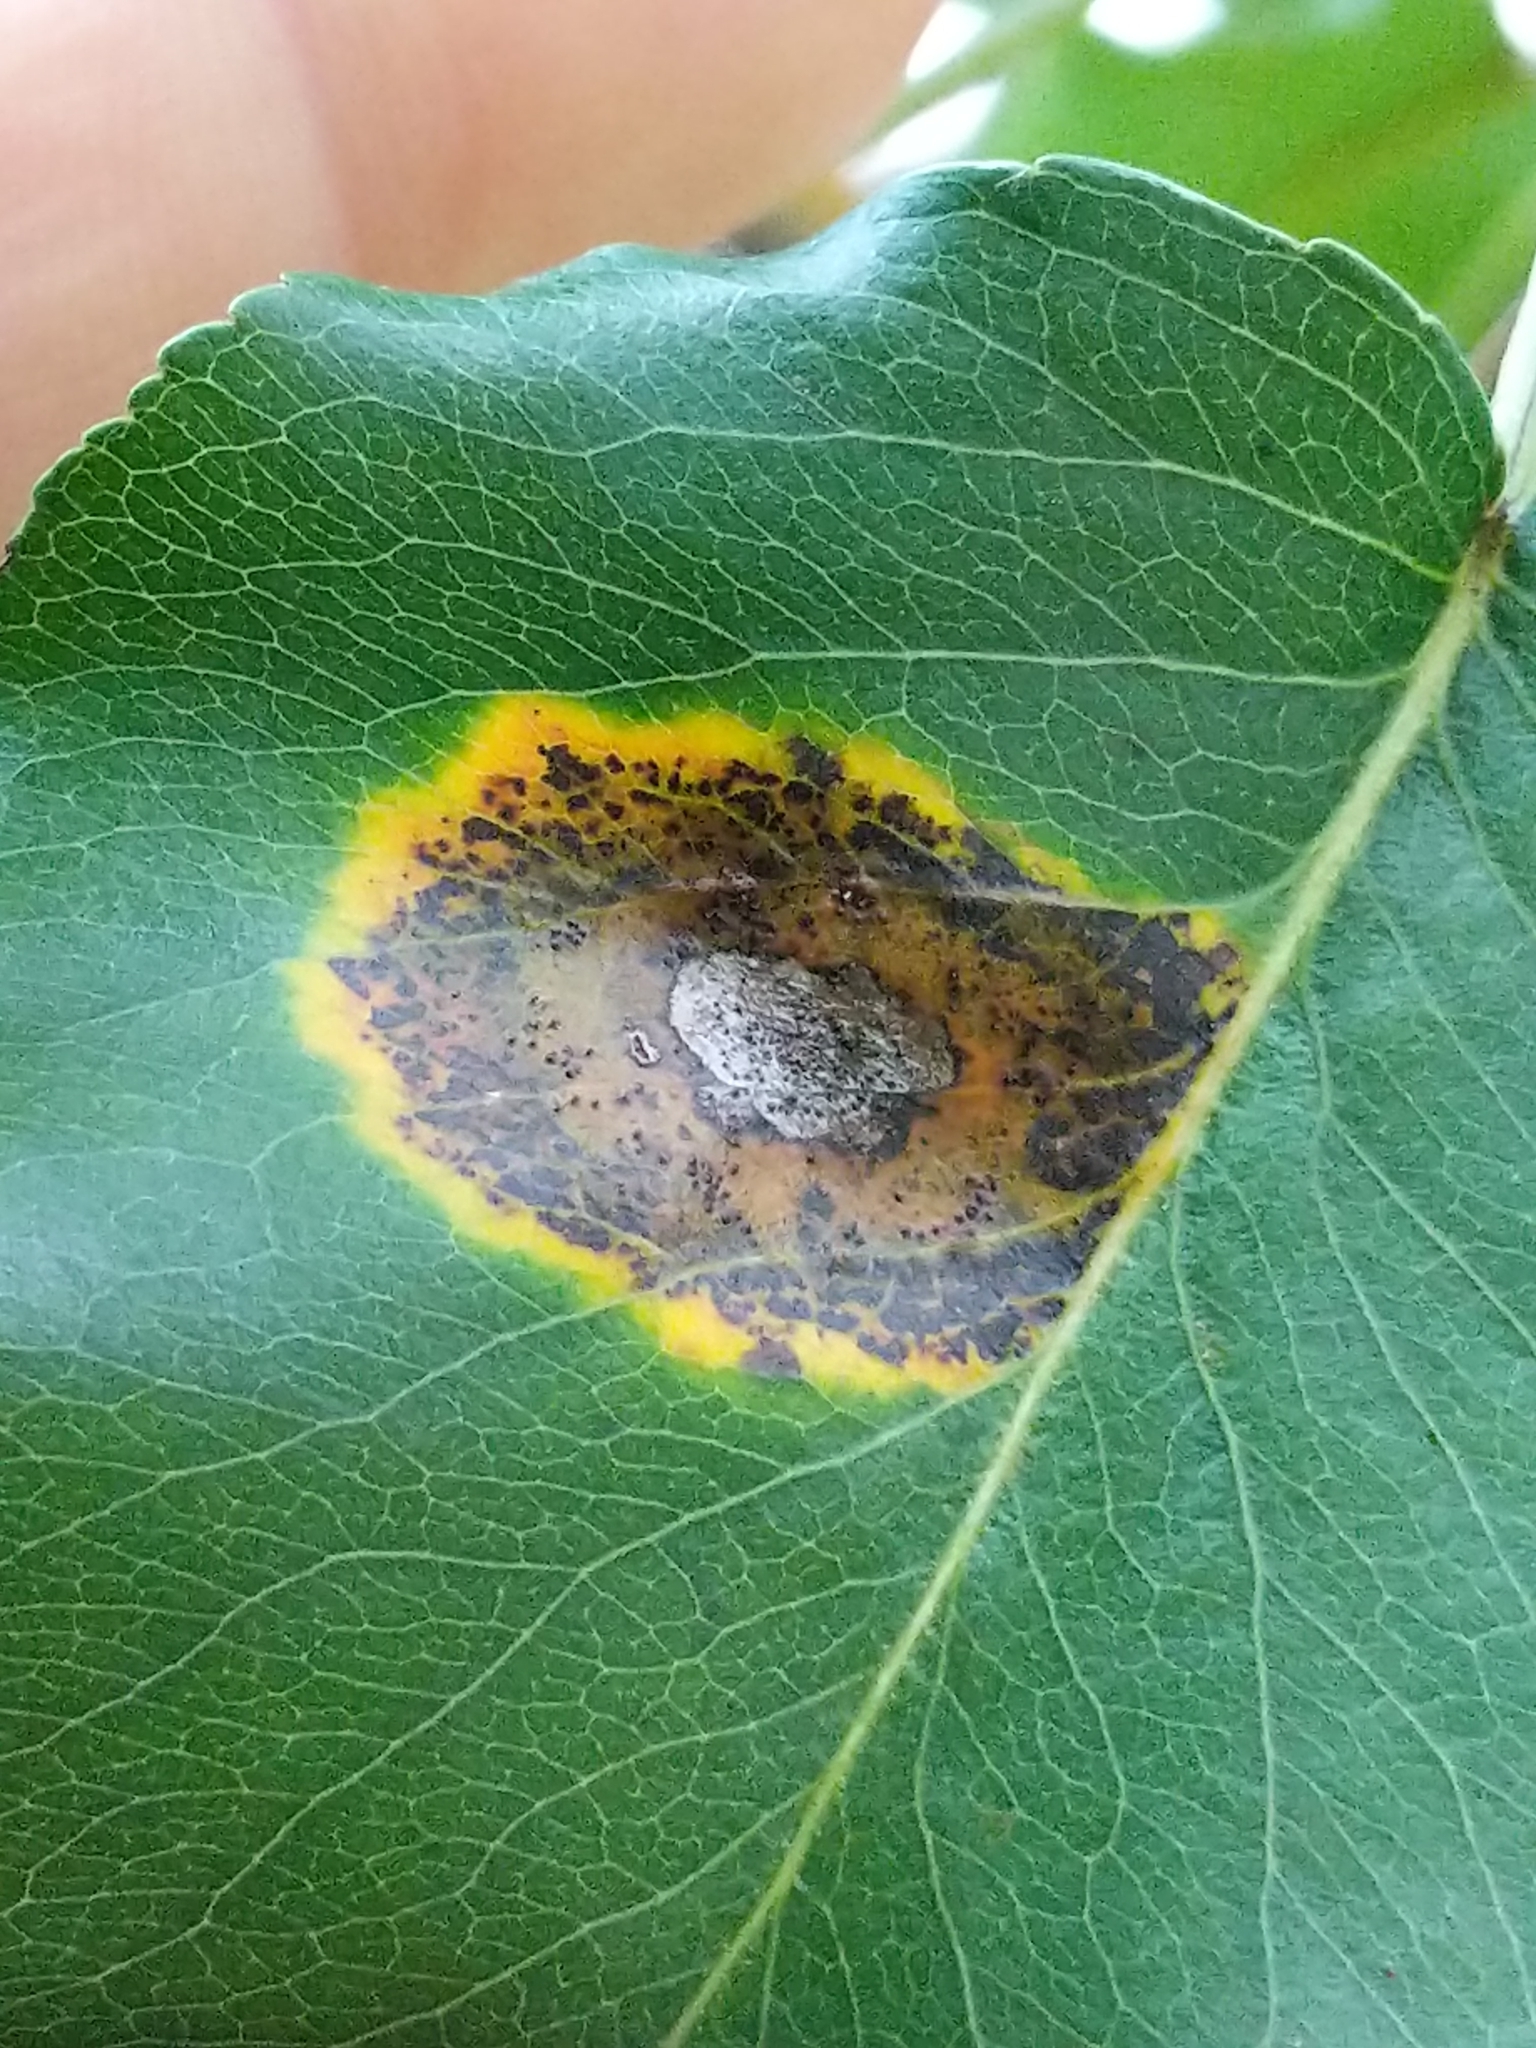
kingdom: Fungi
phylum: Basidiomycota
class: Pucciniomycetes
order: Pucciniales
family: Gymnosporangiaceae
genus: Gymnosporangium
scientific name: Gymnosporangium sabinae
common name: Pear trellis rust fungus
